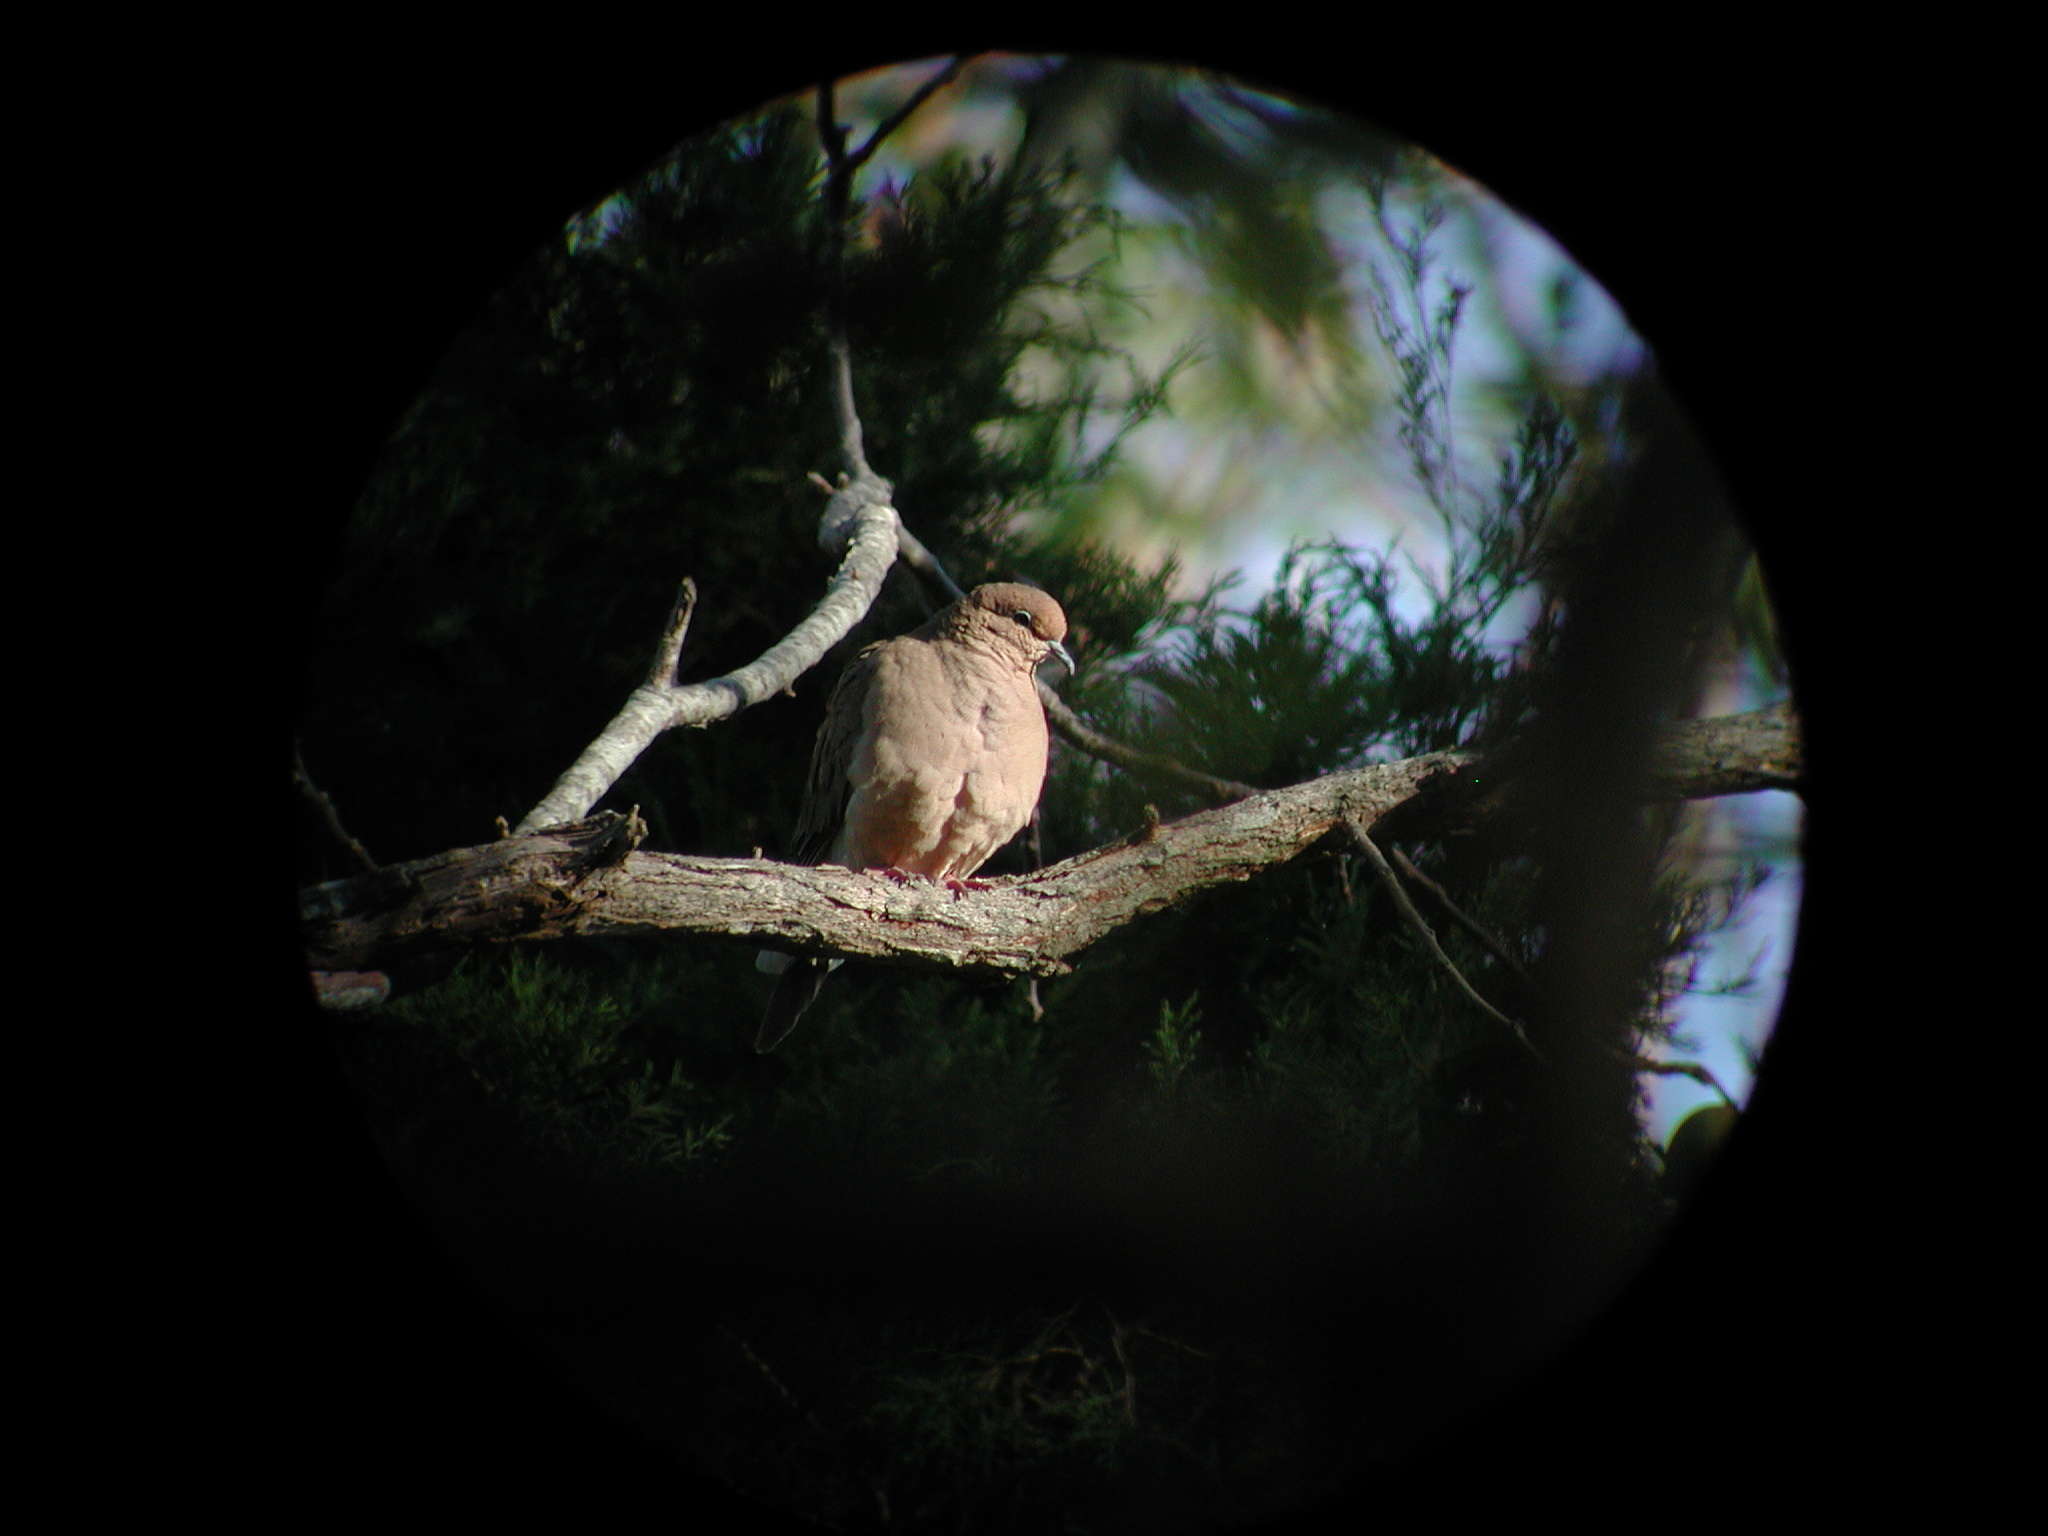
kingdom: Animalia
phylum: Chordata
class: Aves
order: Columbiformes
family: Columbidae
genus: Zenaida
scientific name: Zenaida macroura
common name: Mourning dove
